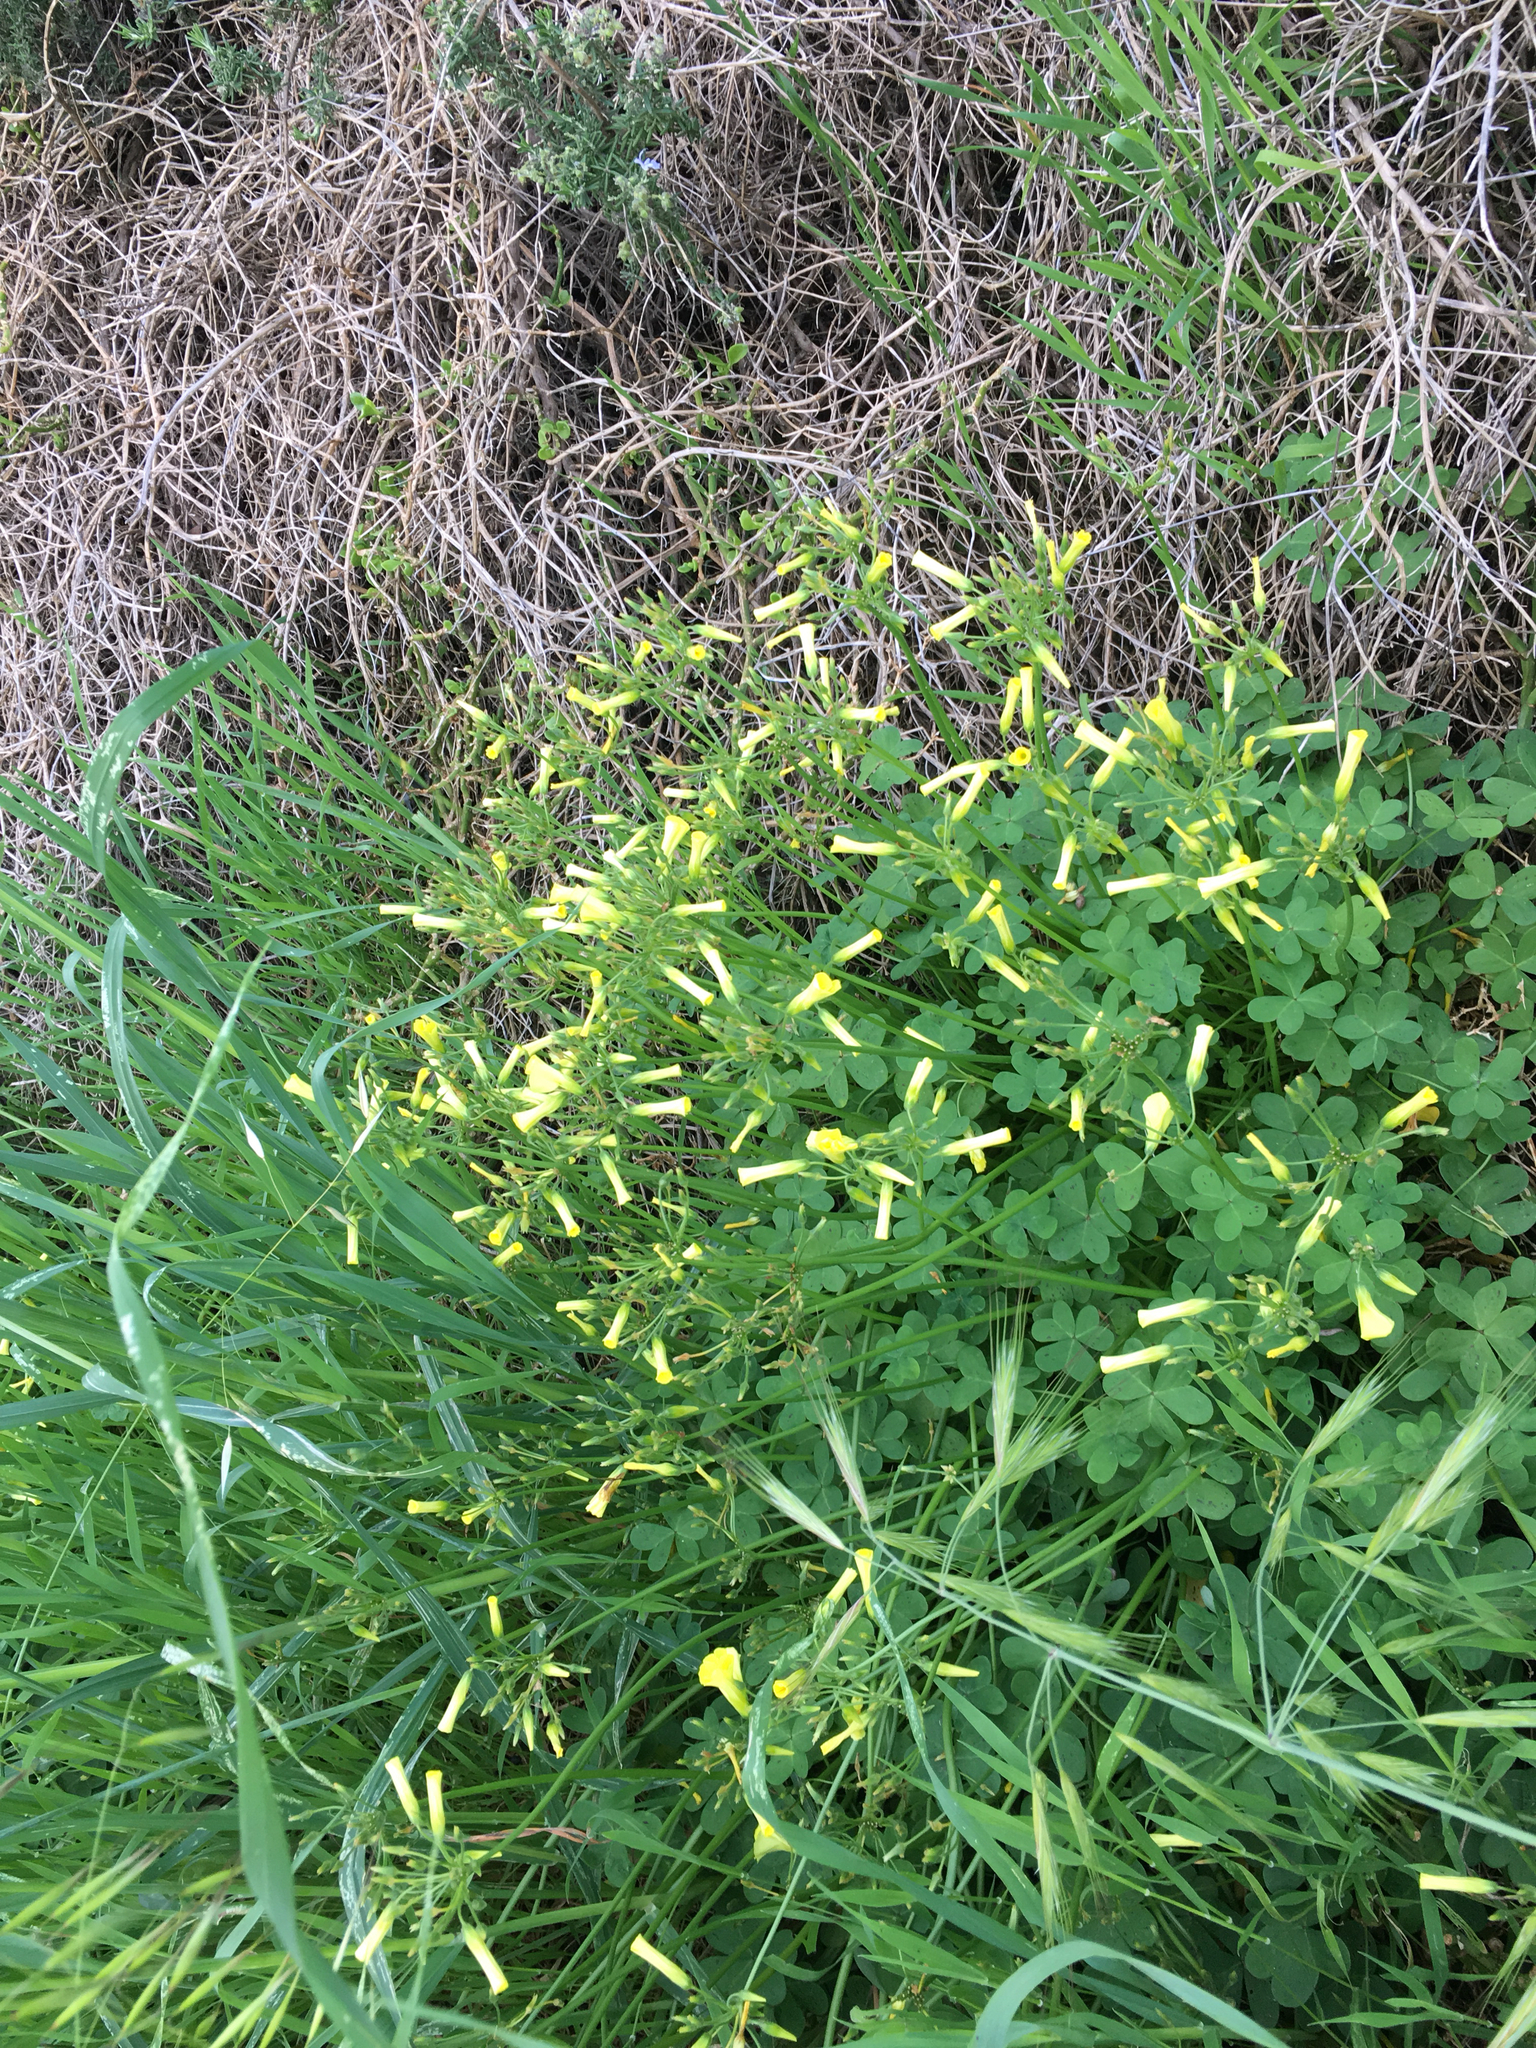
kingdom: Plantae
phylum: Tracheophyta
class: Magnoliopsida
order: Oxalidales
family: Oxalidaceae
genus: Oxalis
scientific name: Oxalis pes-caprae
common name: Bermuda-buttercup
